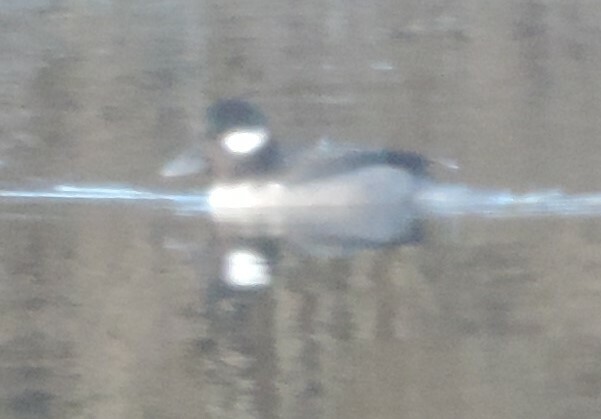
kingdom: Animalia
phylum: Chordata
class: Aves
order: Anseriformes
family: Anatidae
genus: Bucephala
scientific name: Bucephala albeola
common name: Bufflehead
